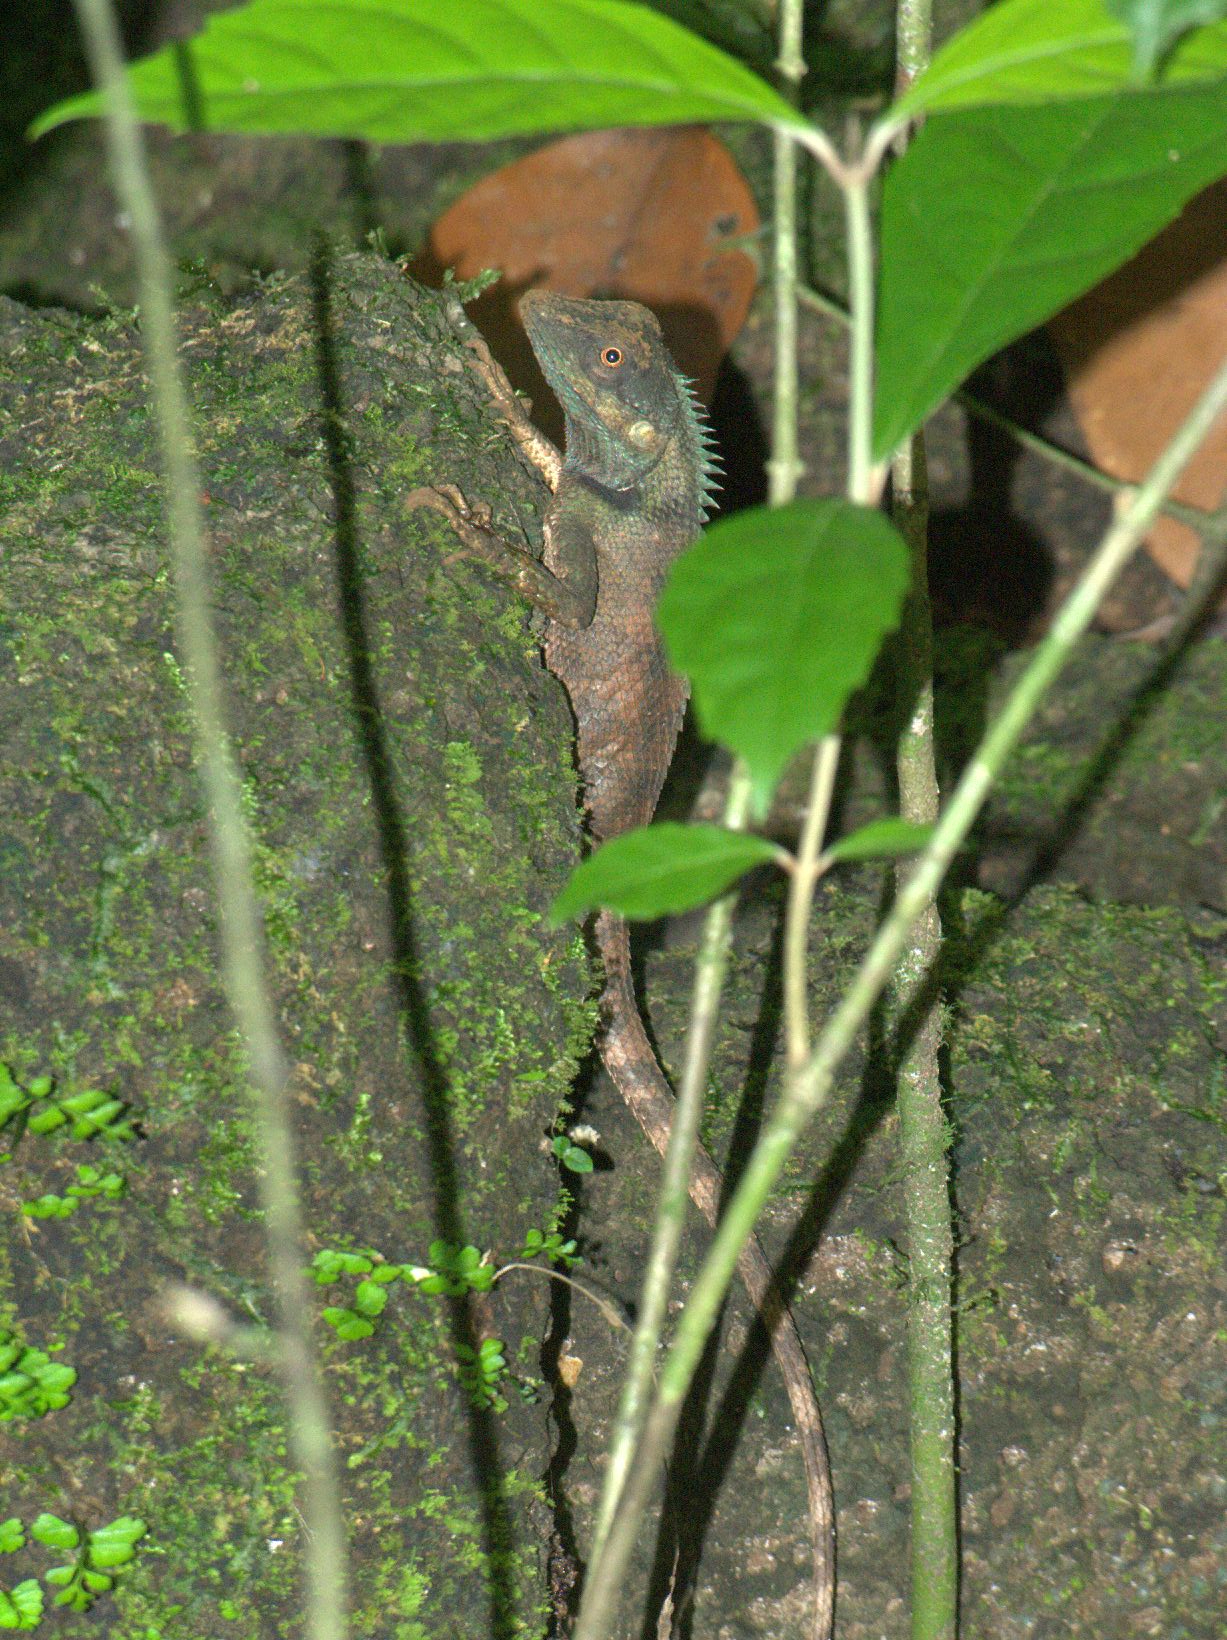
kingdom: Animalia
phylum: Chordata
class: Squamata
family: Agamidae
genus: Calotes
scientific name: Calotes bachae
